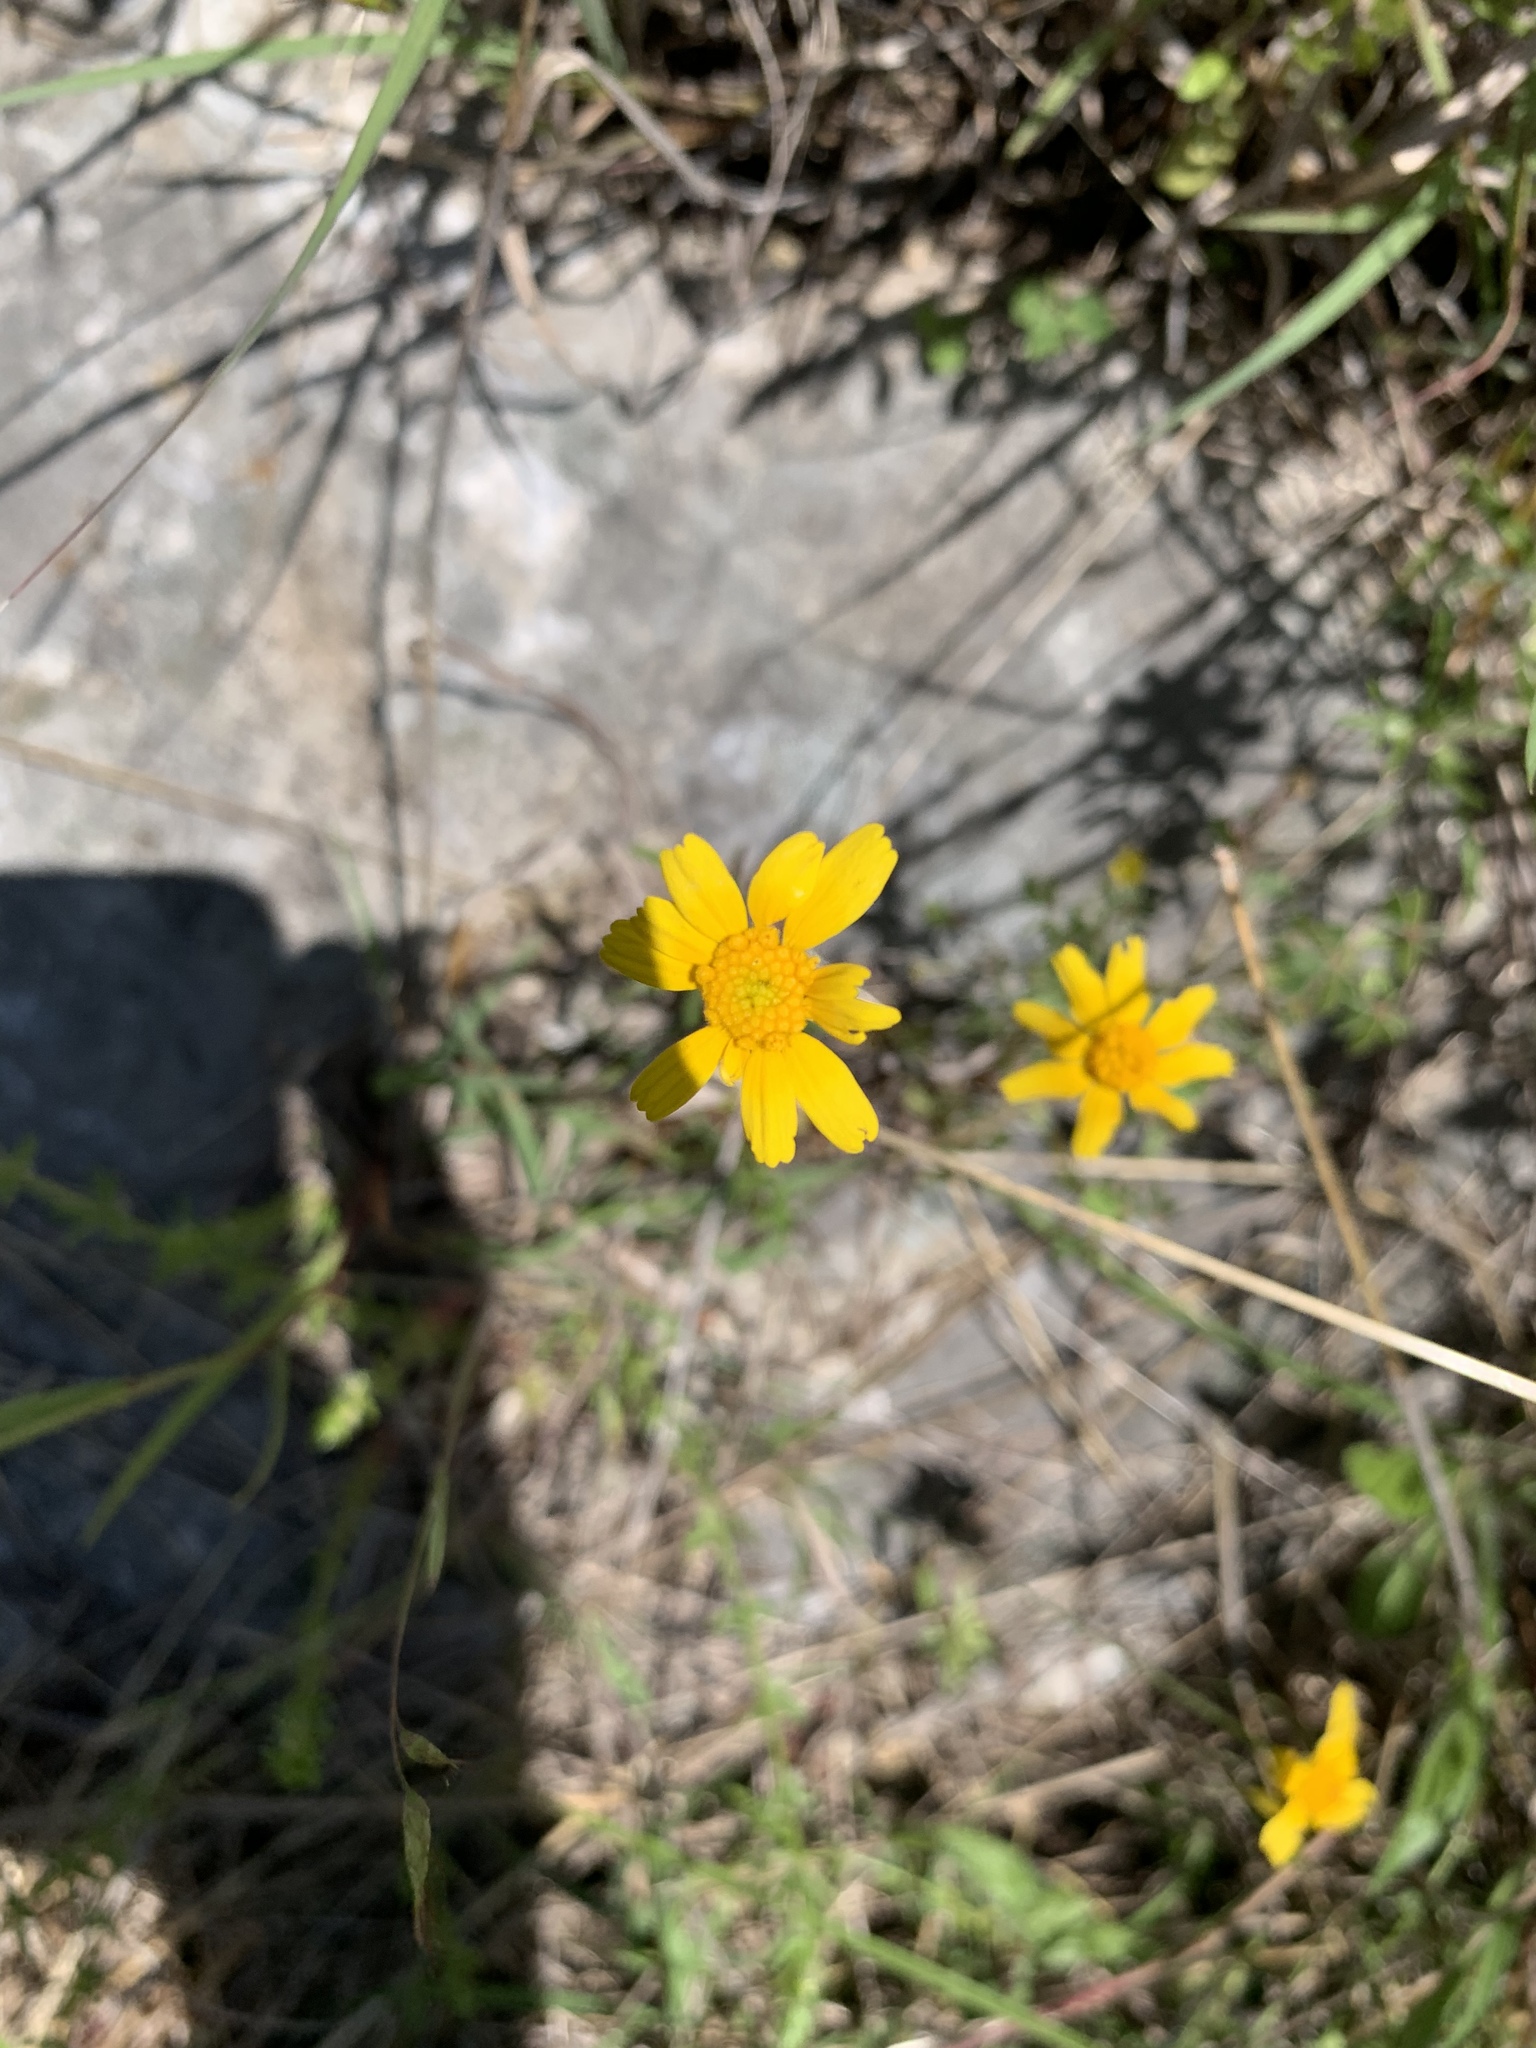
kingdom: Plantae
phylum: Tracheophyta
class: Magnoliopsida
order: Asterales
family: Asteraceae
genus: Tetraneuris
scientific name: Tetraneuris linearifolia
